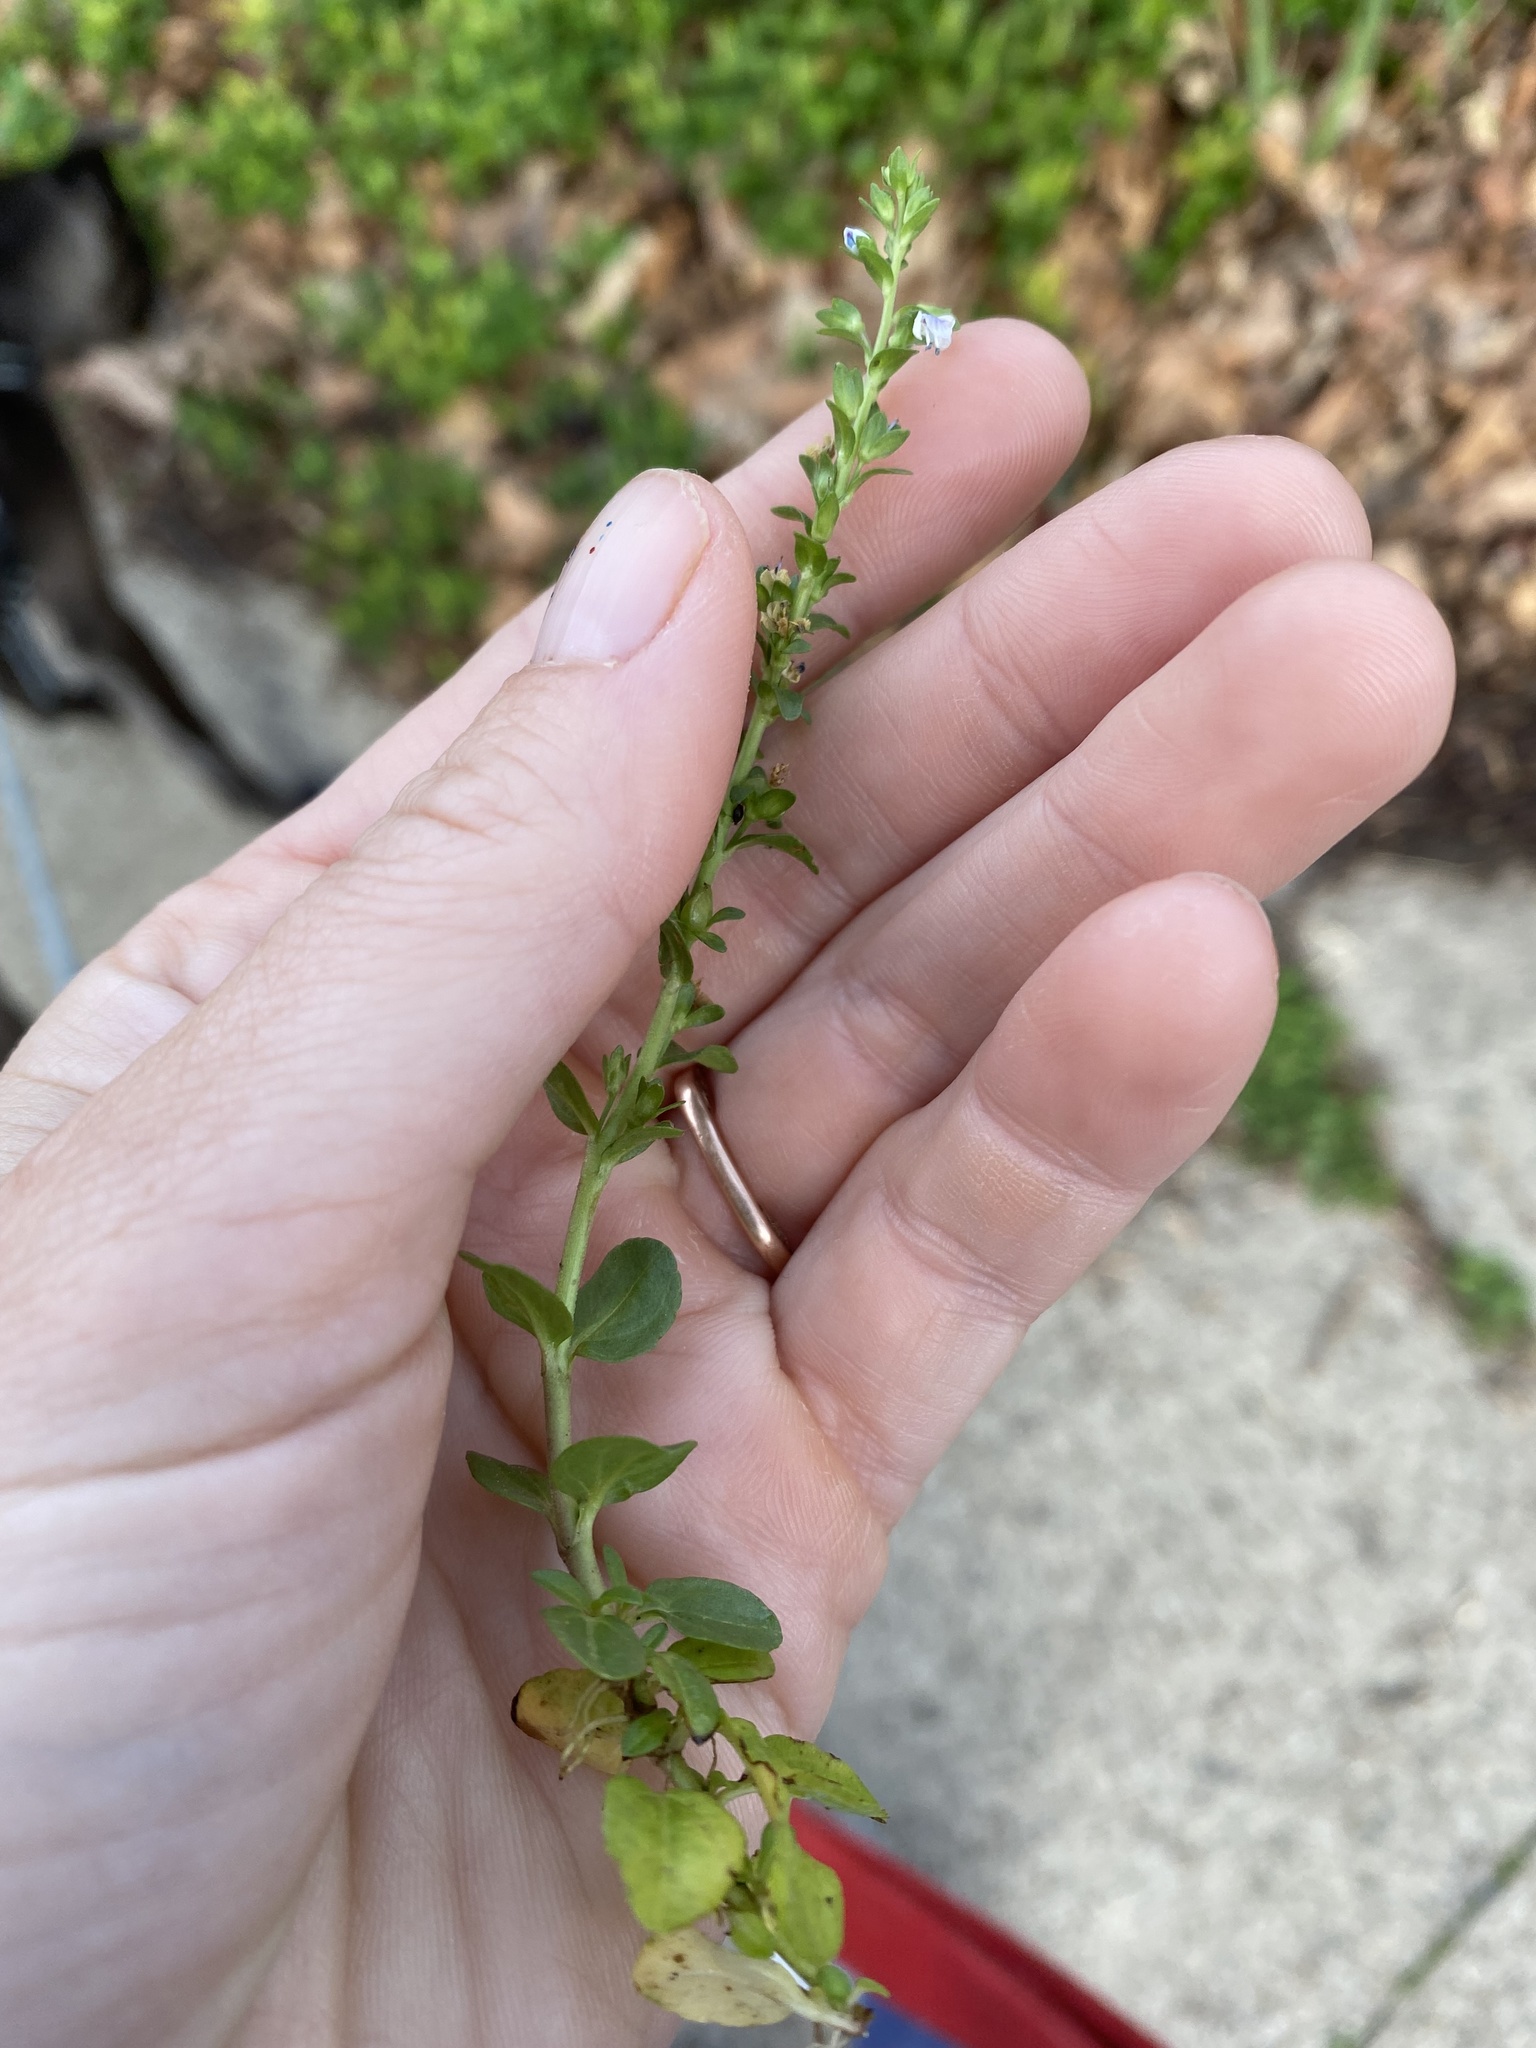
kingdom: Plantae
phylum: Tracheophyta
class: Magnoliopsida
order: Lamiales
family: Plantaginaceae
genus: Veronica
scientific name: Veronica serpyllifolia
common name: Thyme-leaved speedwell
